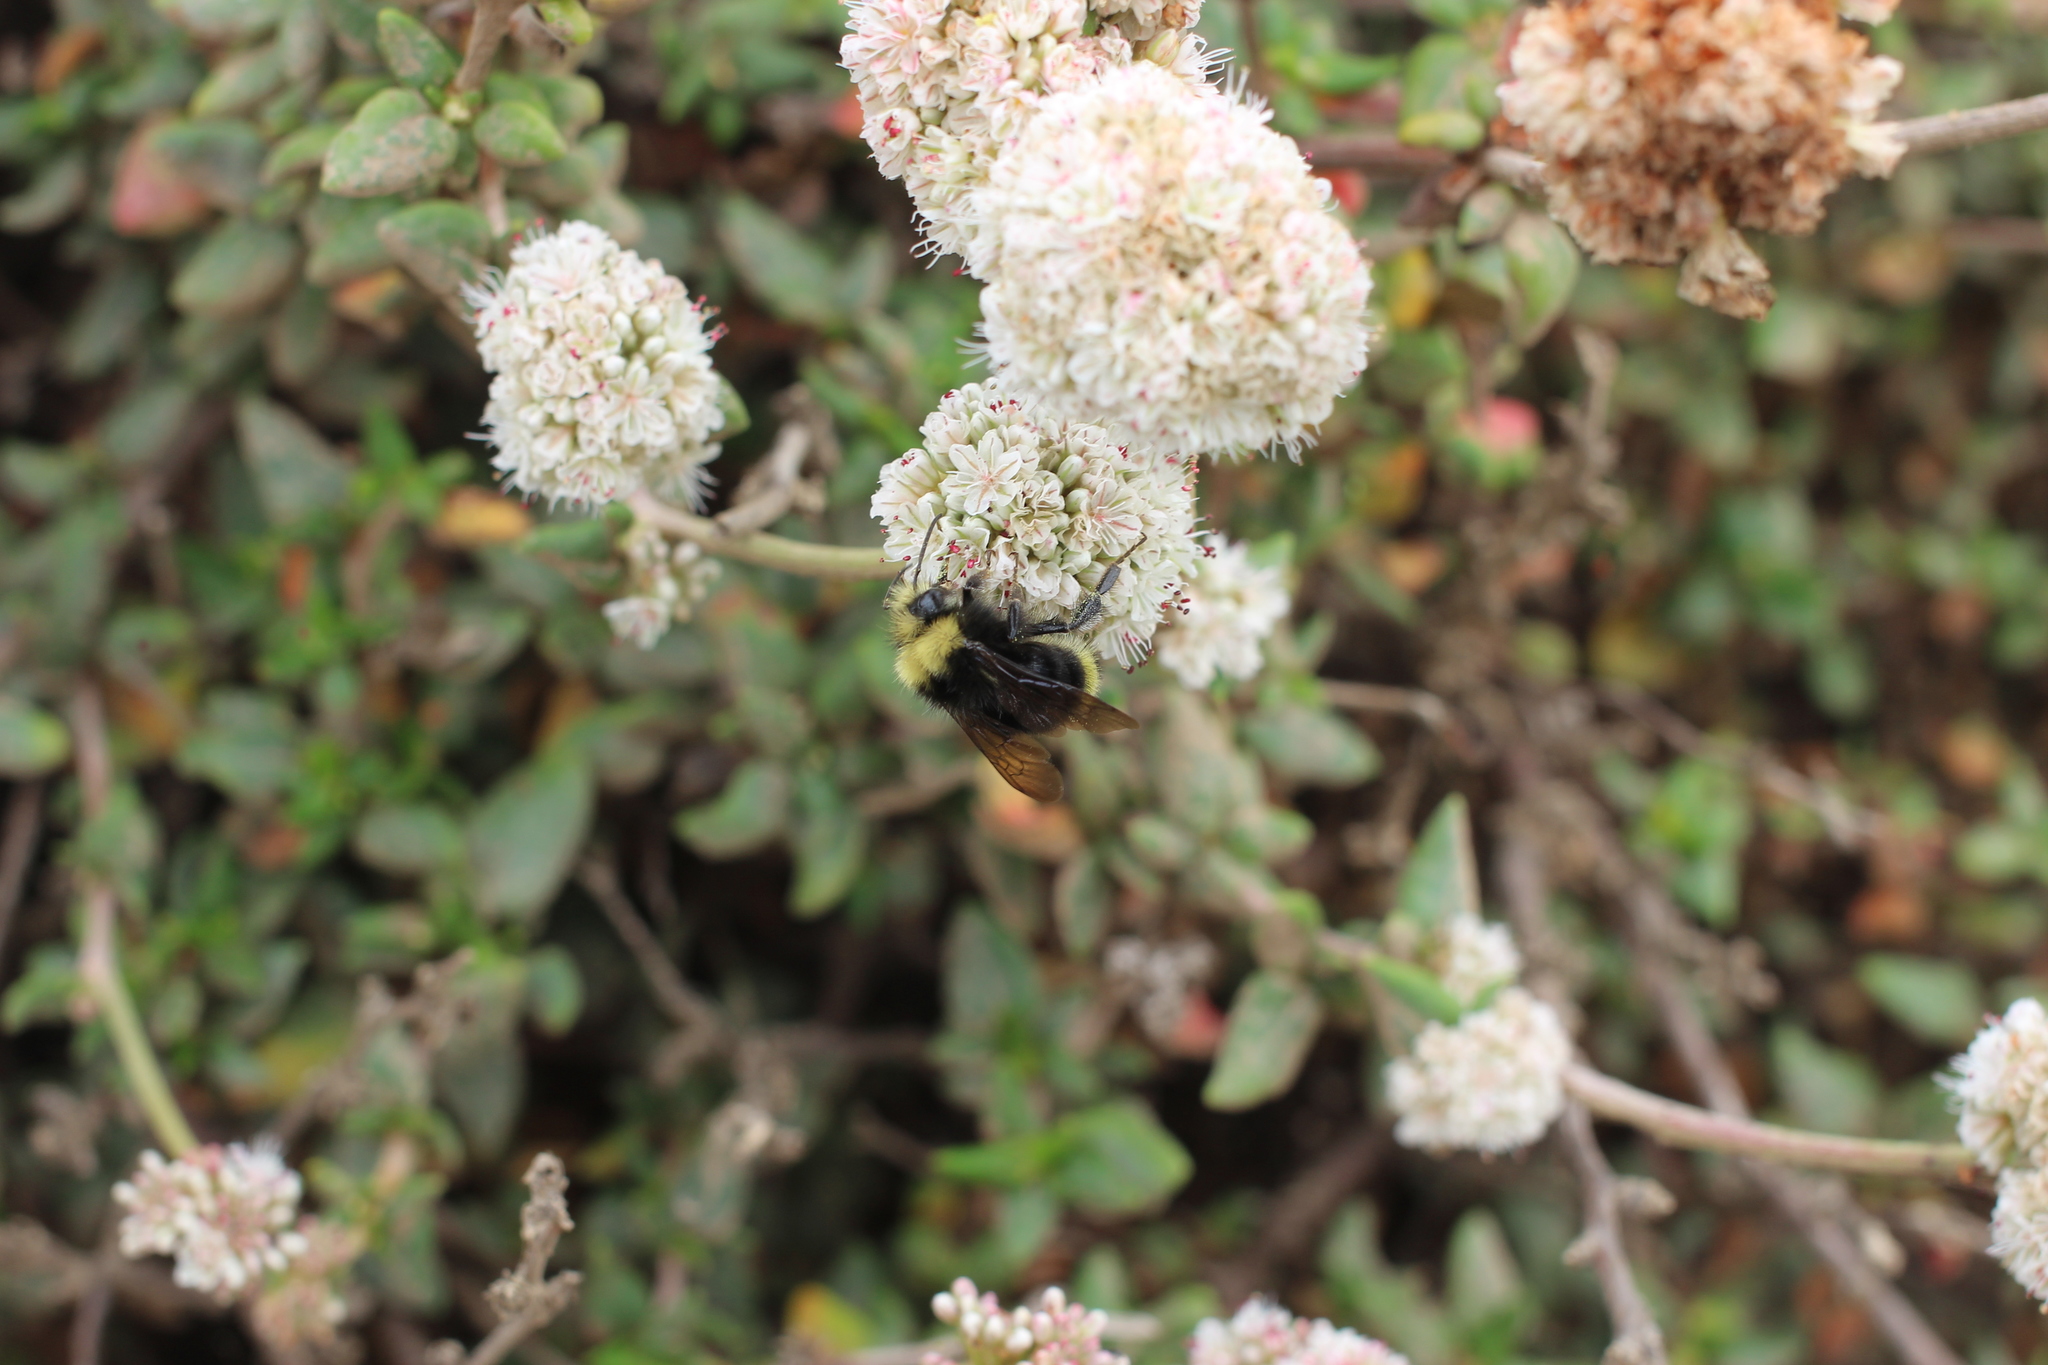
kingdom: Plantae
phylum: Tracheophyta
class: Magnoliopsida
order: Caryophyllales
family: Polygonaceae
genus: Eriogonum
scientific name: Eriogonum parvifolium
